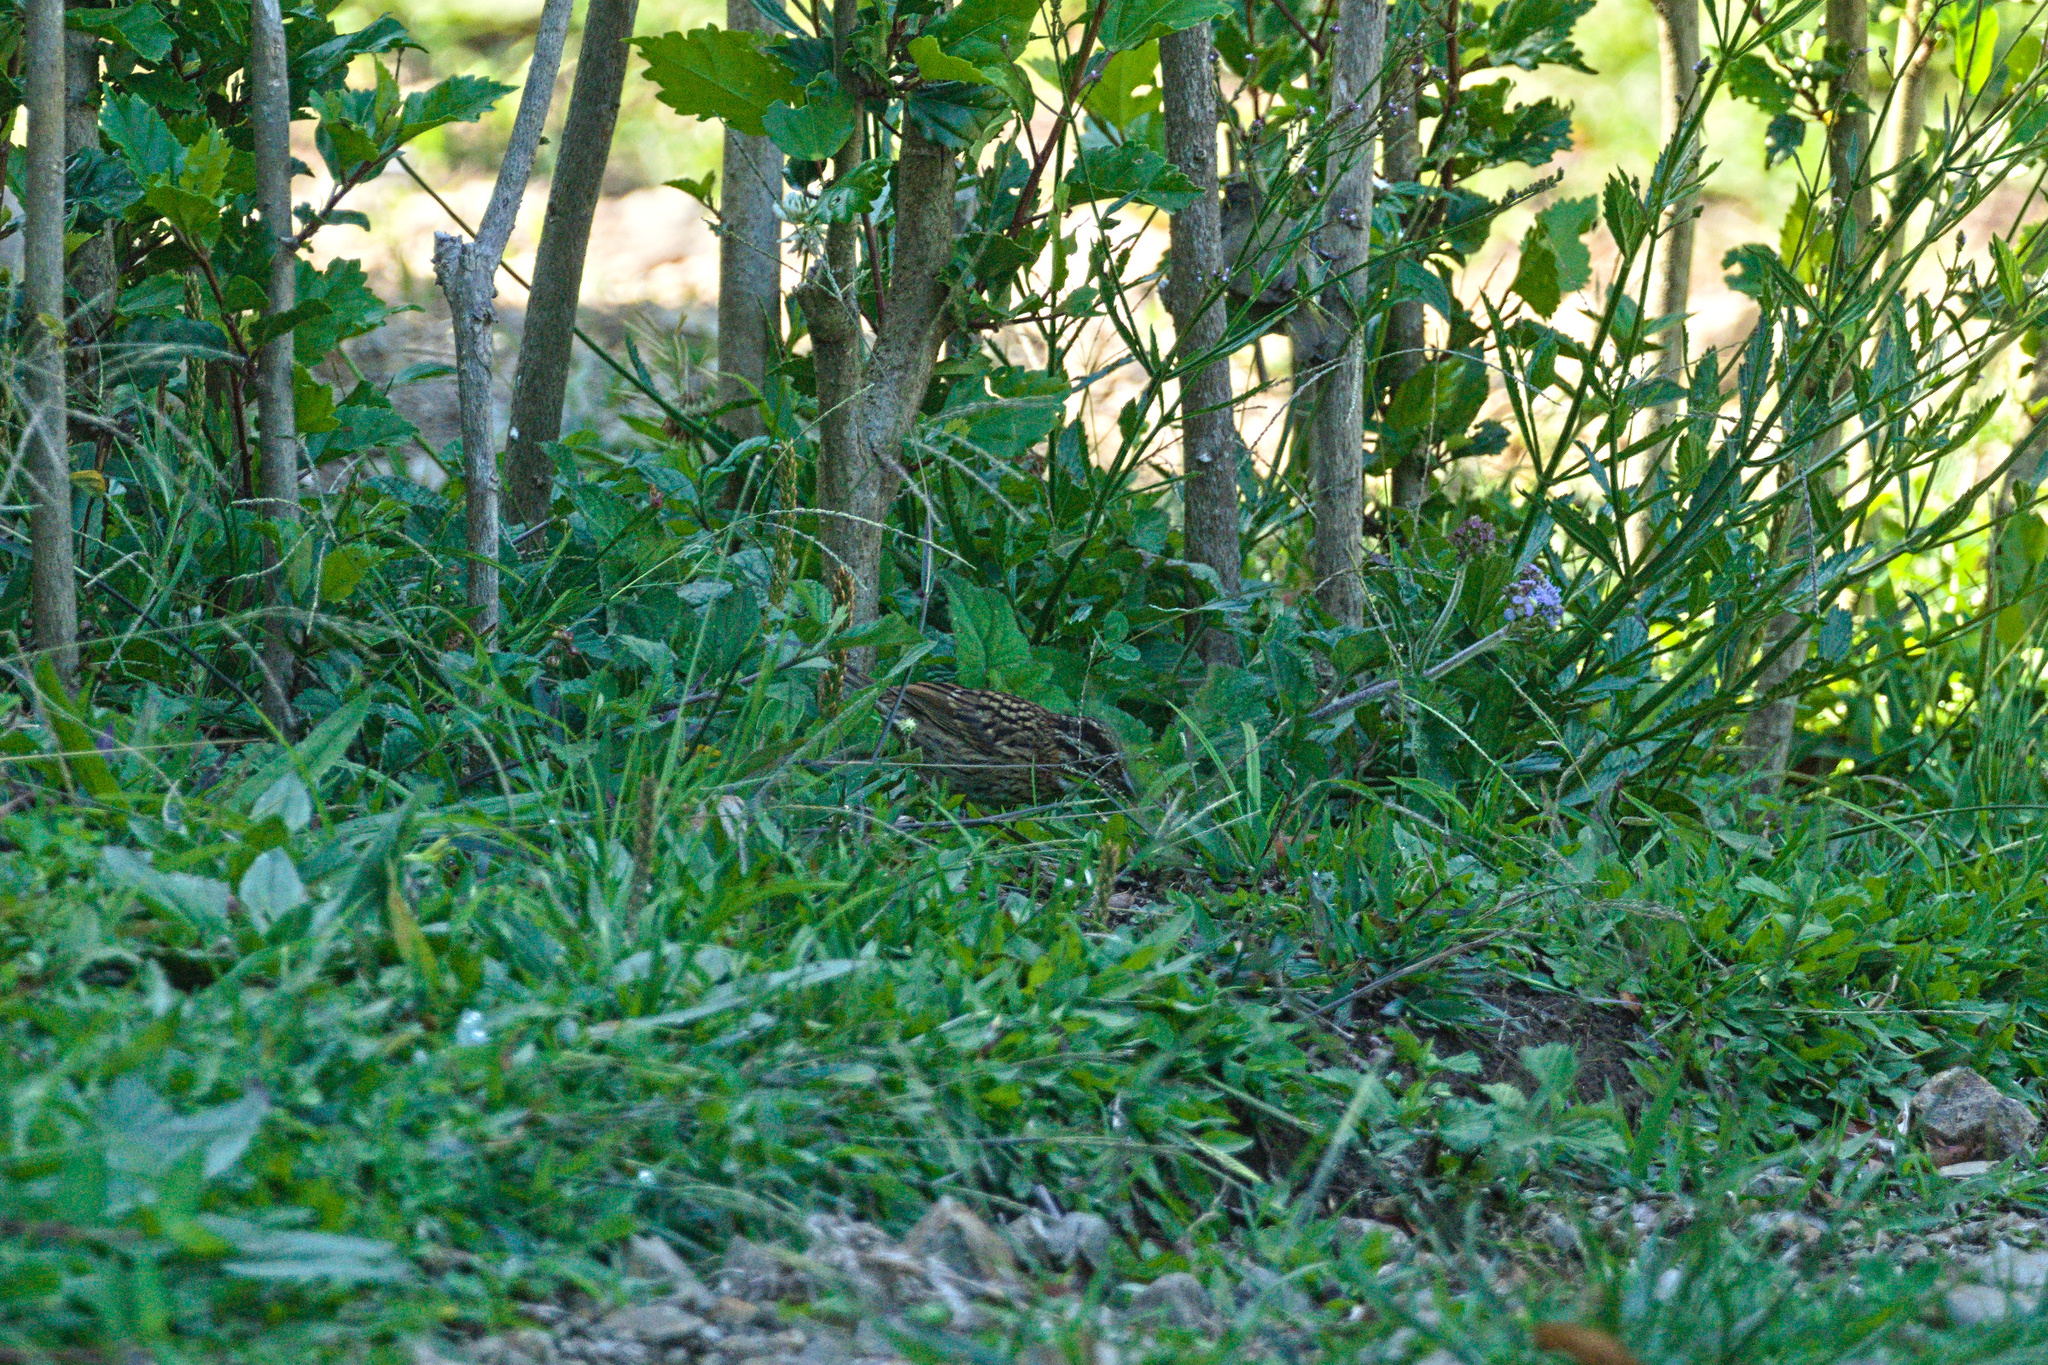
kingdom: Animalia
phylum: Chordata
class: Aves
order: Passeriformes
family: Passerellidae
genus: Zonotrichia
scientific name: Zonotrichia capensis
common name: Rufous-collared sparrow
